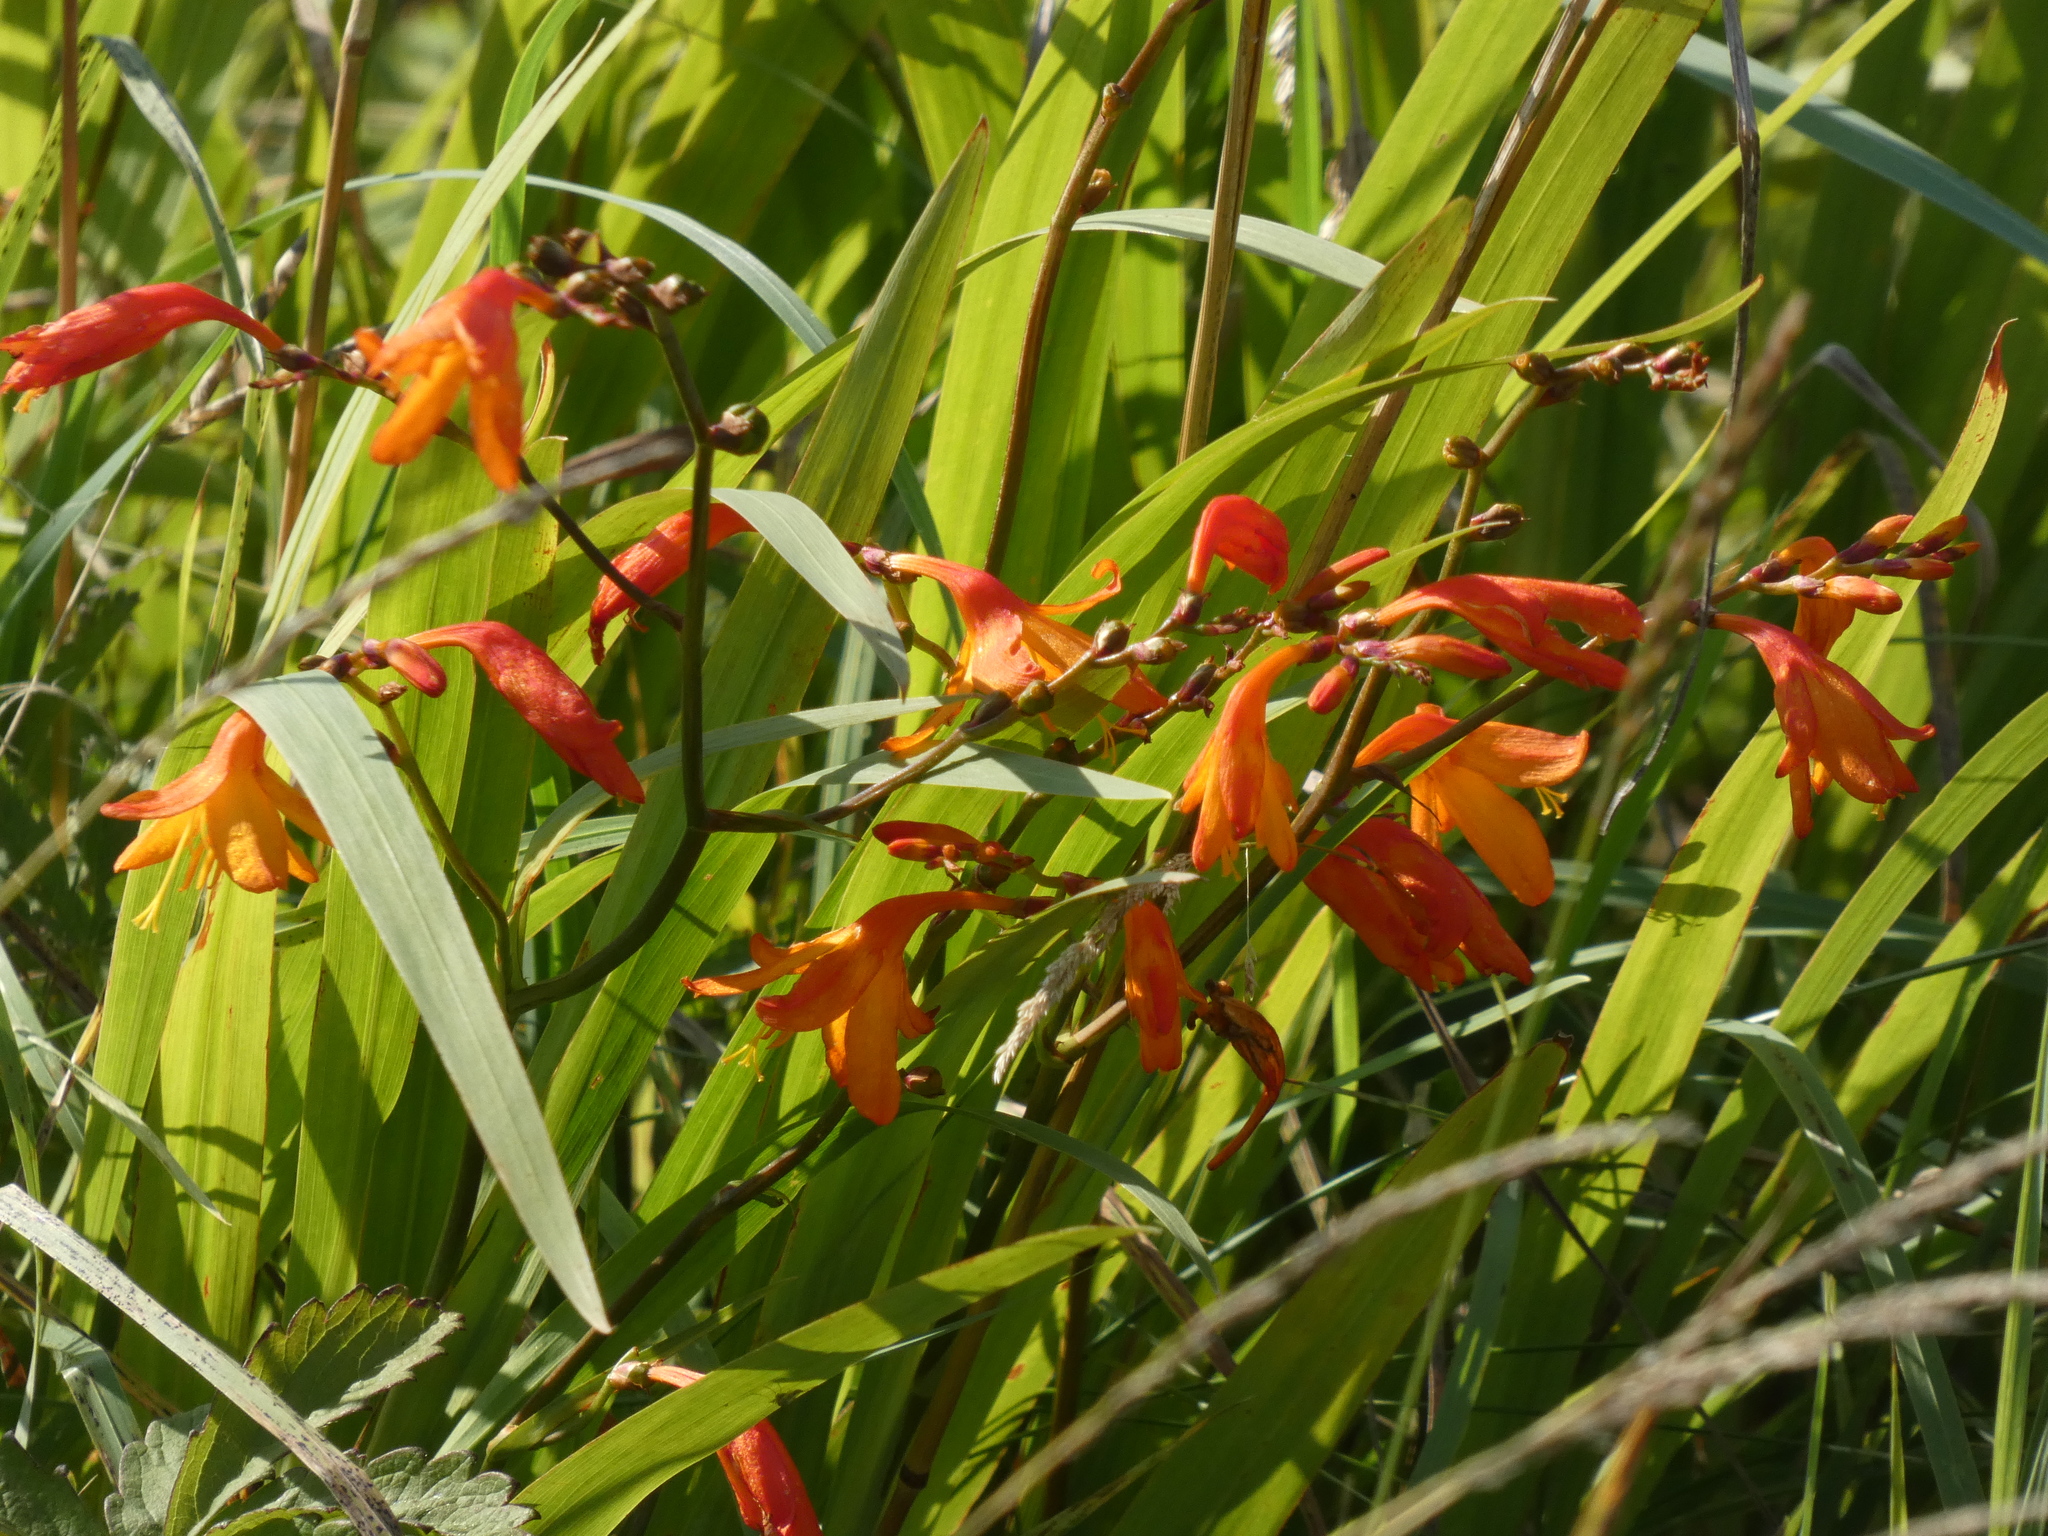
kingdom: Plantae
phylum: Tracheophyta
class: Liliopsida
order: Asparagales
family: Iridaceae
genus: Crocosmia
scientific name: Crocosmia crocosmiiflora
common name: Montbretia
